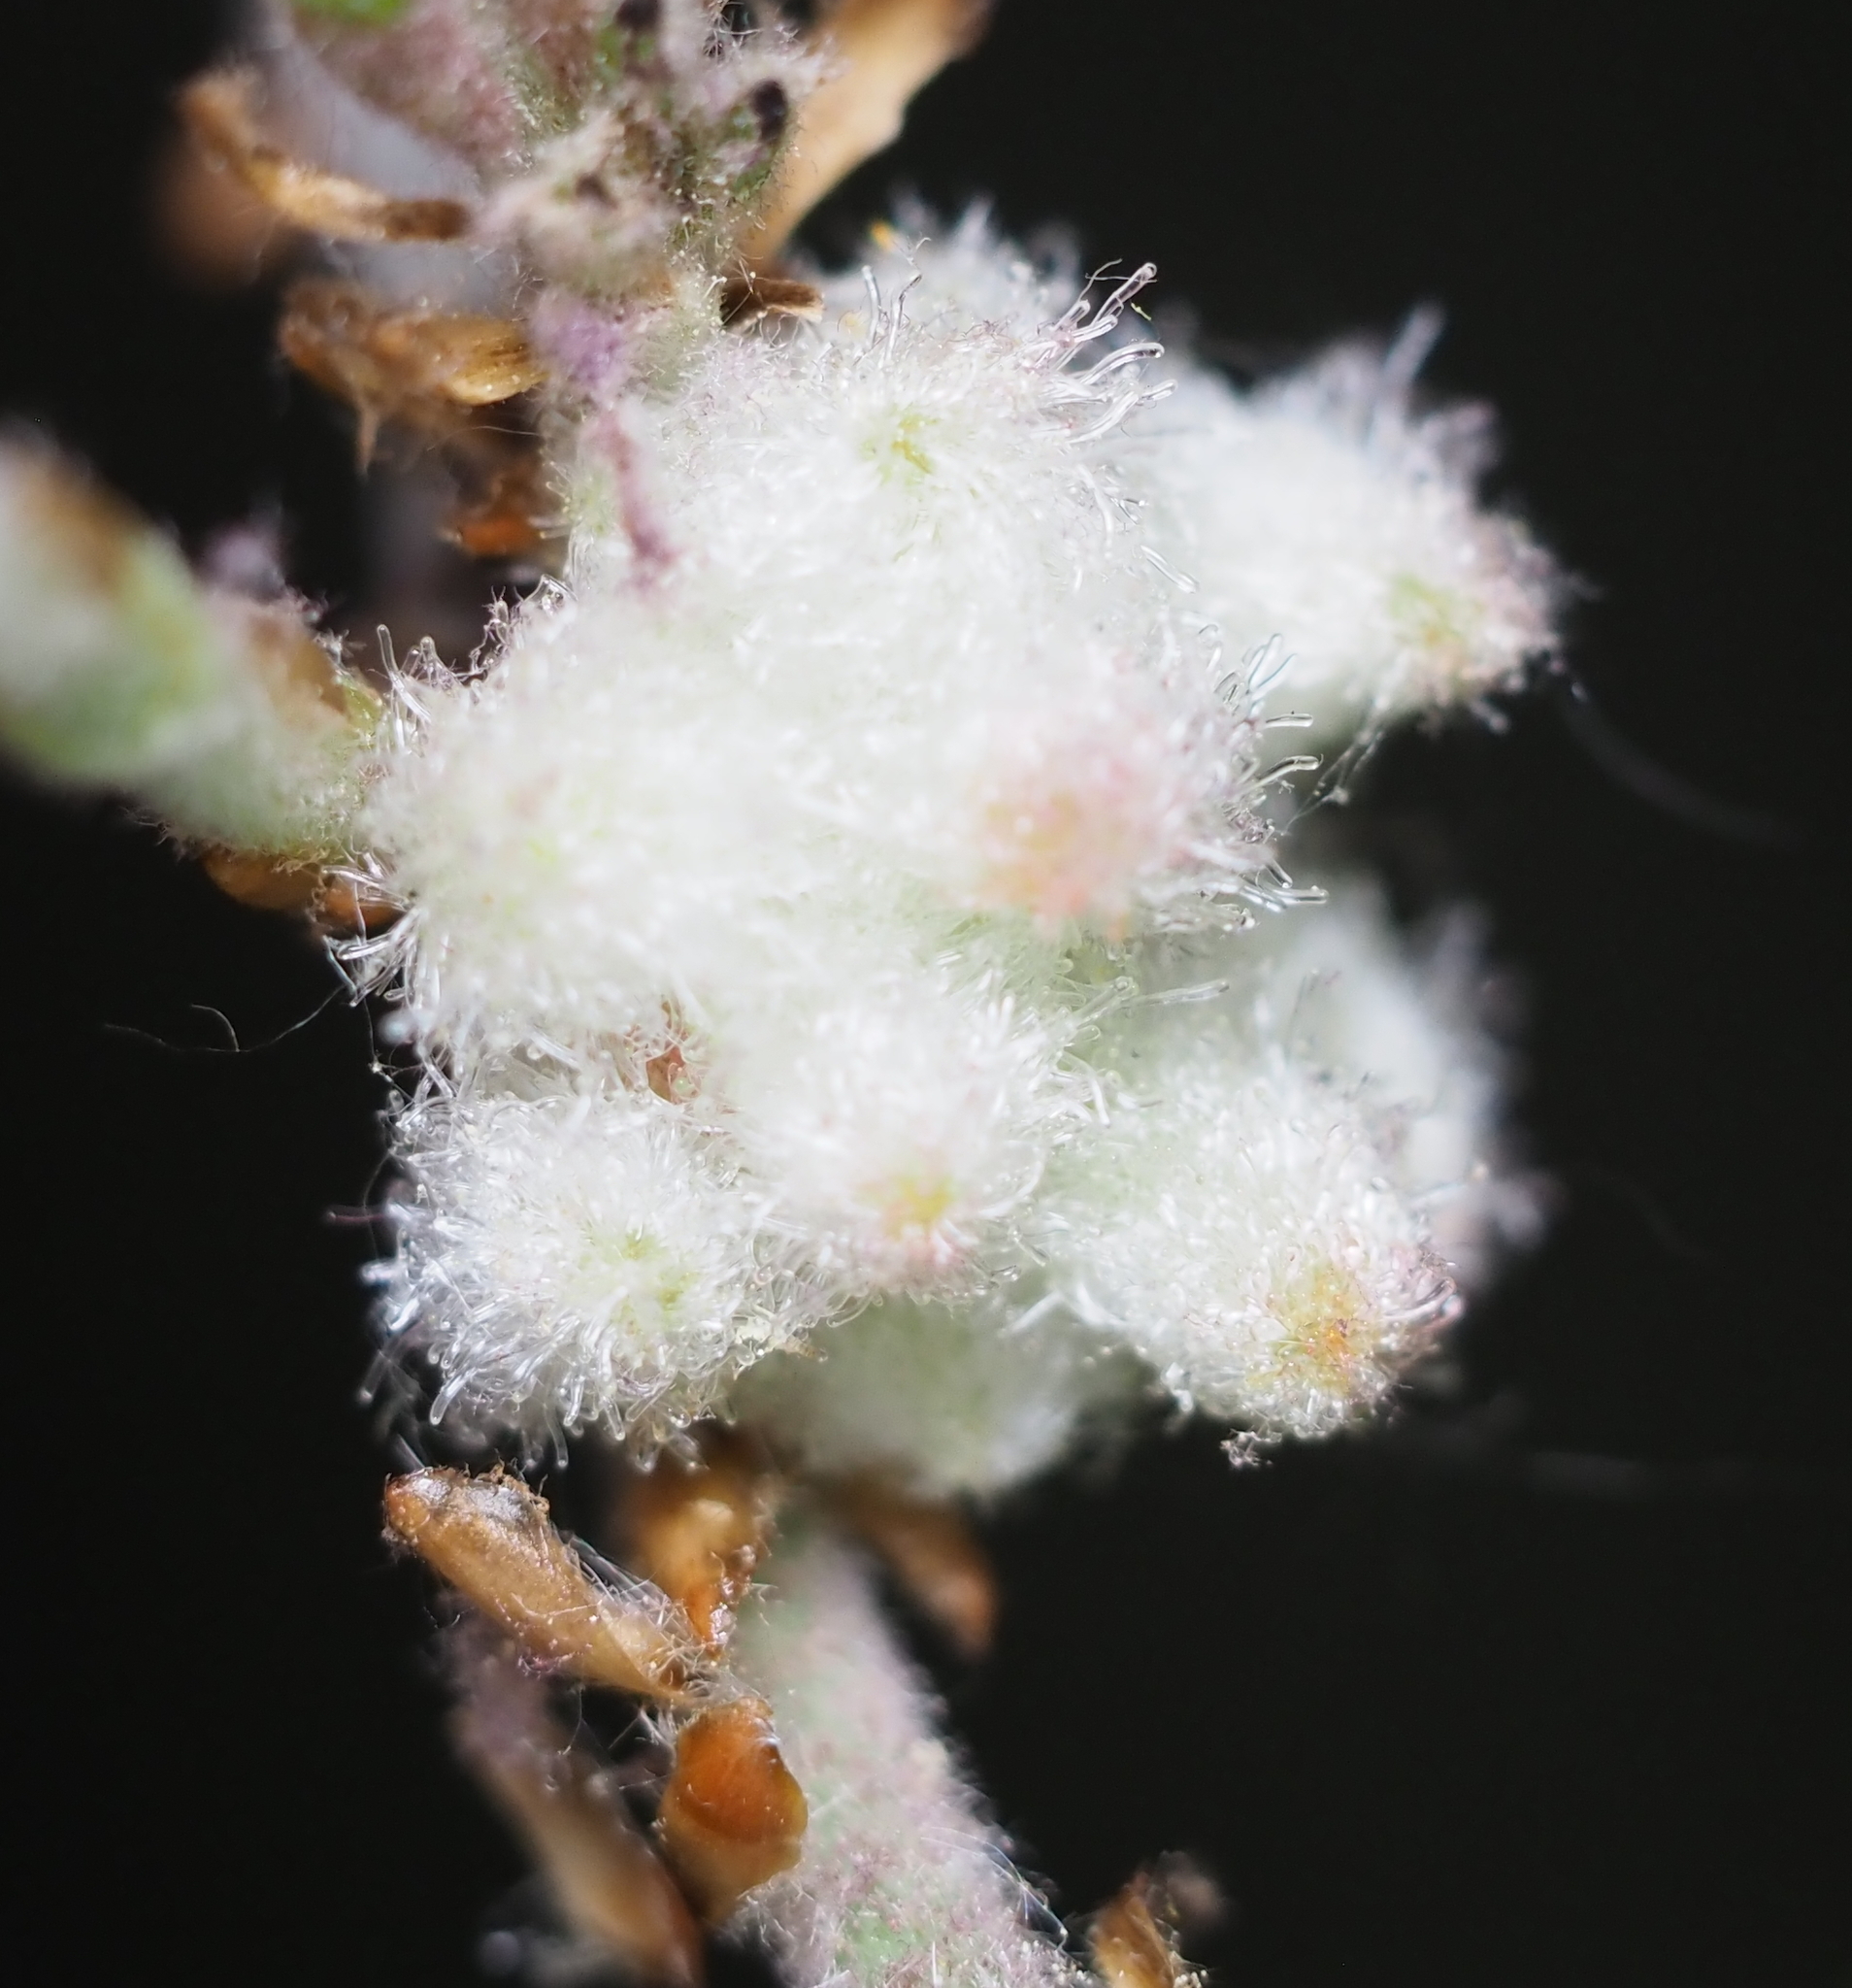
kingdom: Animalia
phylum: Arthropoda
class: Insecta
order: Hymenoptera
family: Cynipidae
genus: Callirhytis
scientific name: Callirhytis
